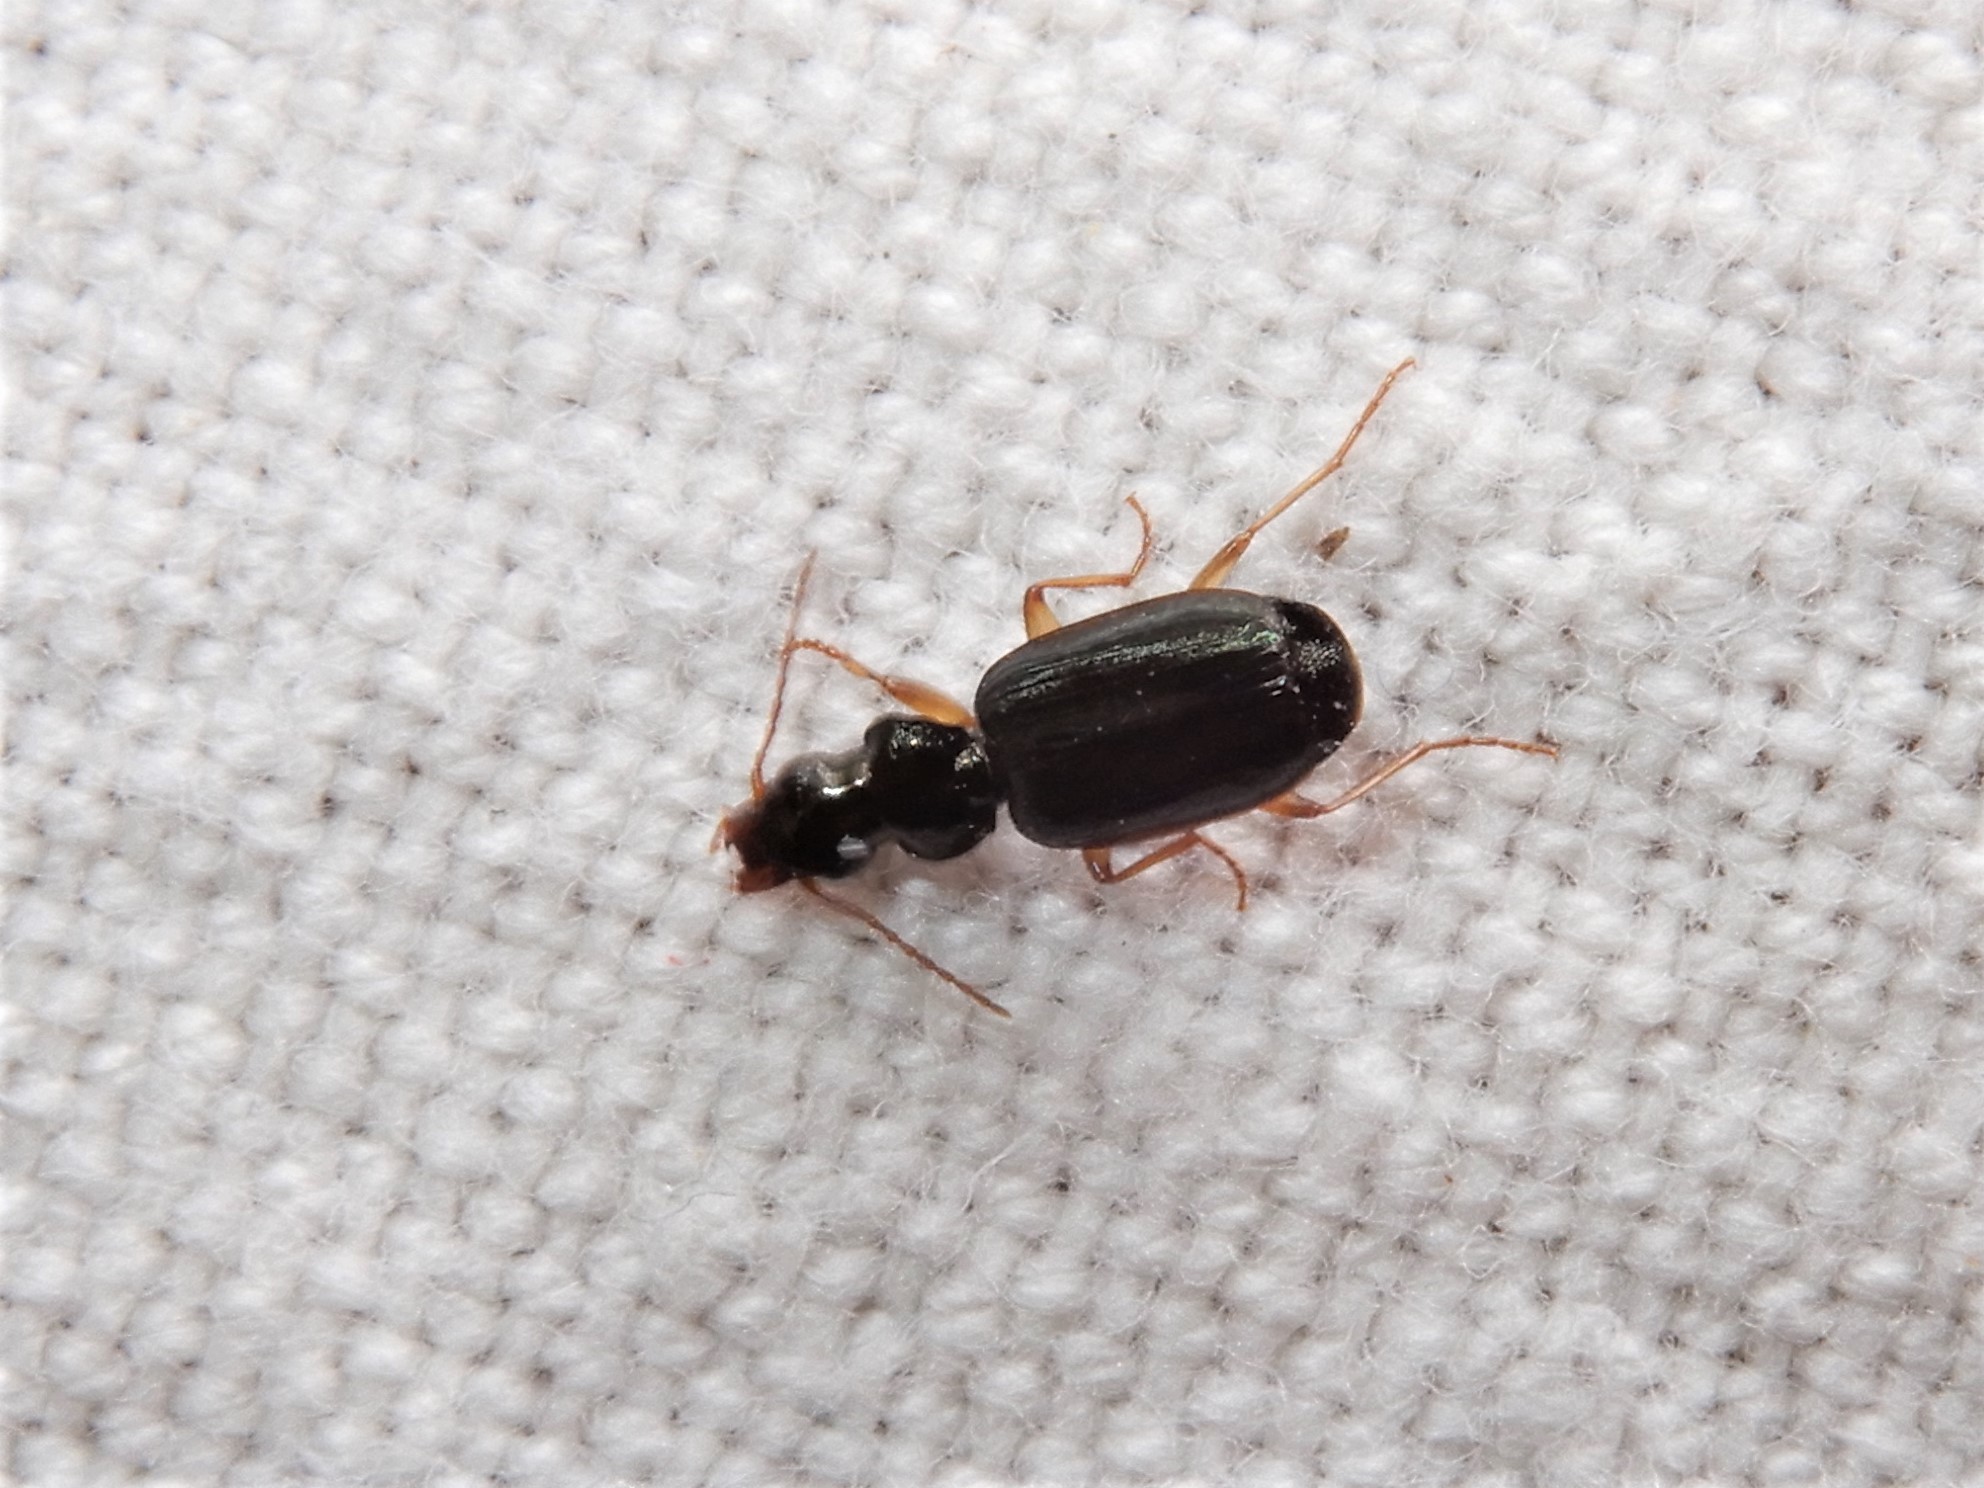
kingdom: Animalia
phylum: Arthropoda
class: Insecta
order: Coleoptera
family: Carabidae
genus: Anomotarus
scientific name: Anomotarus illawarrae
